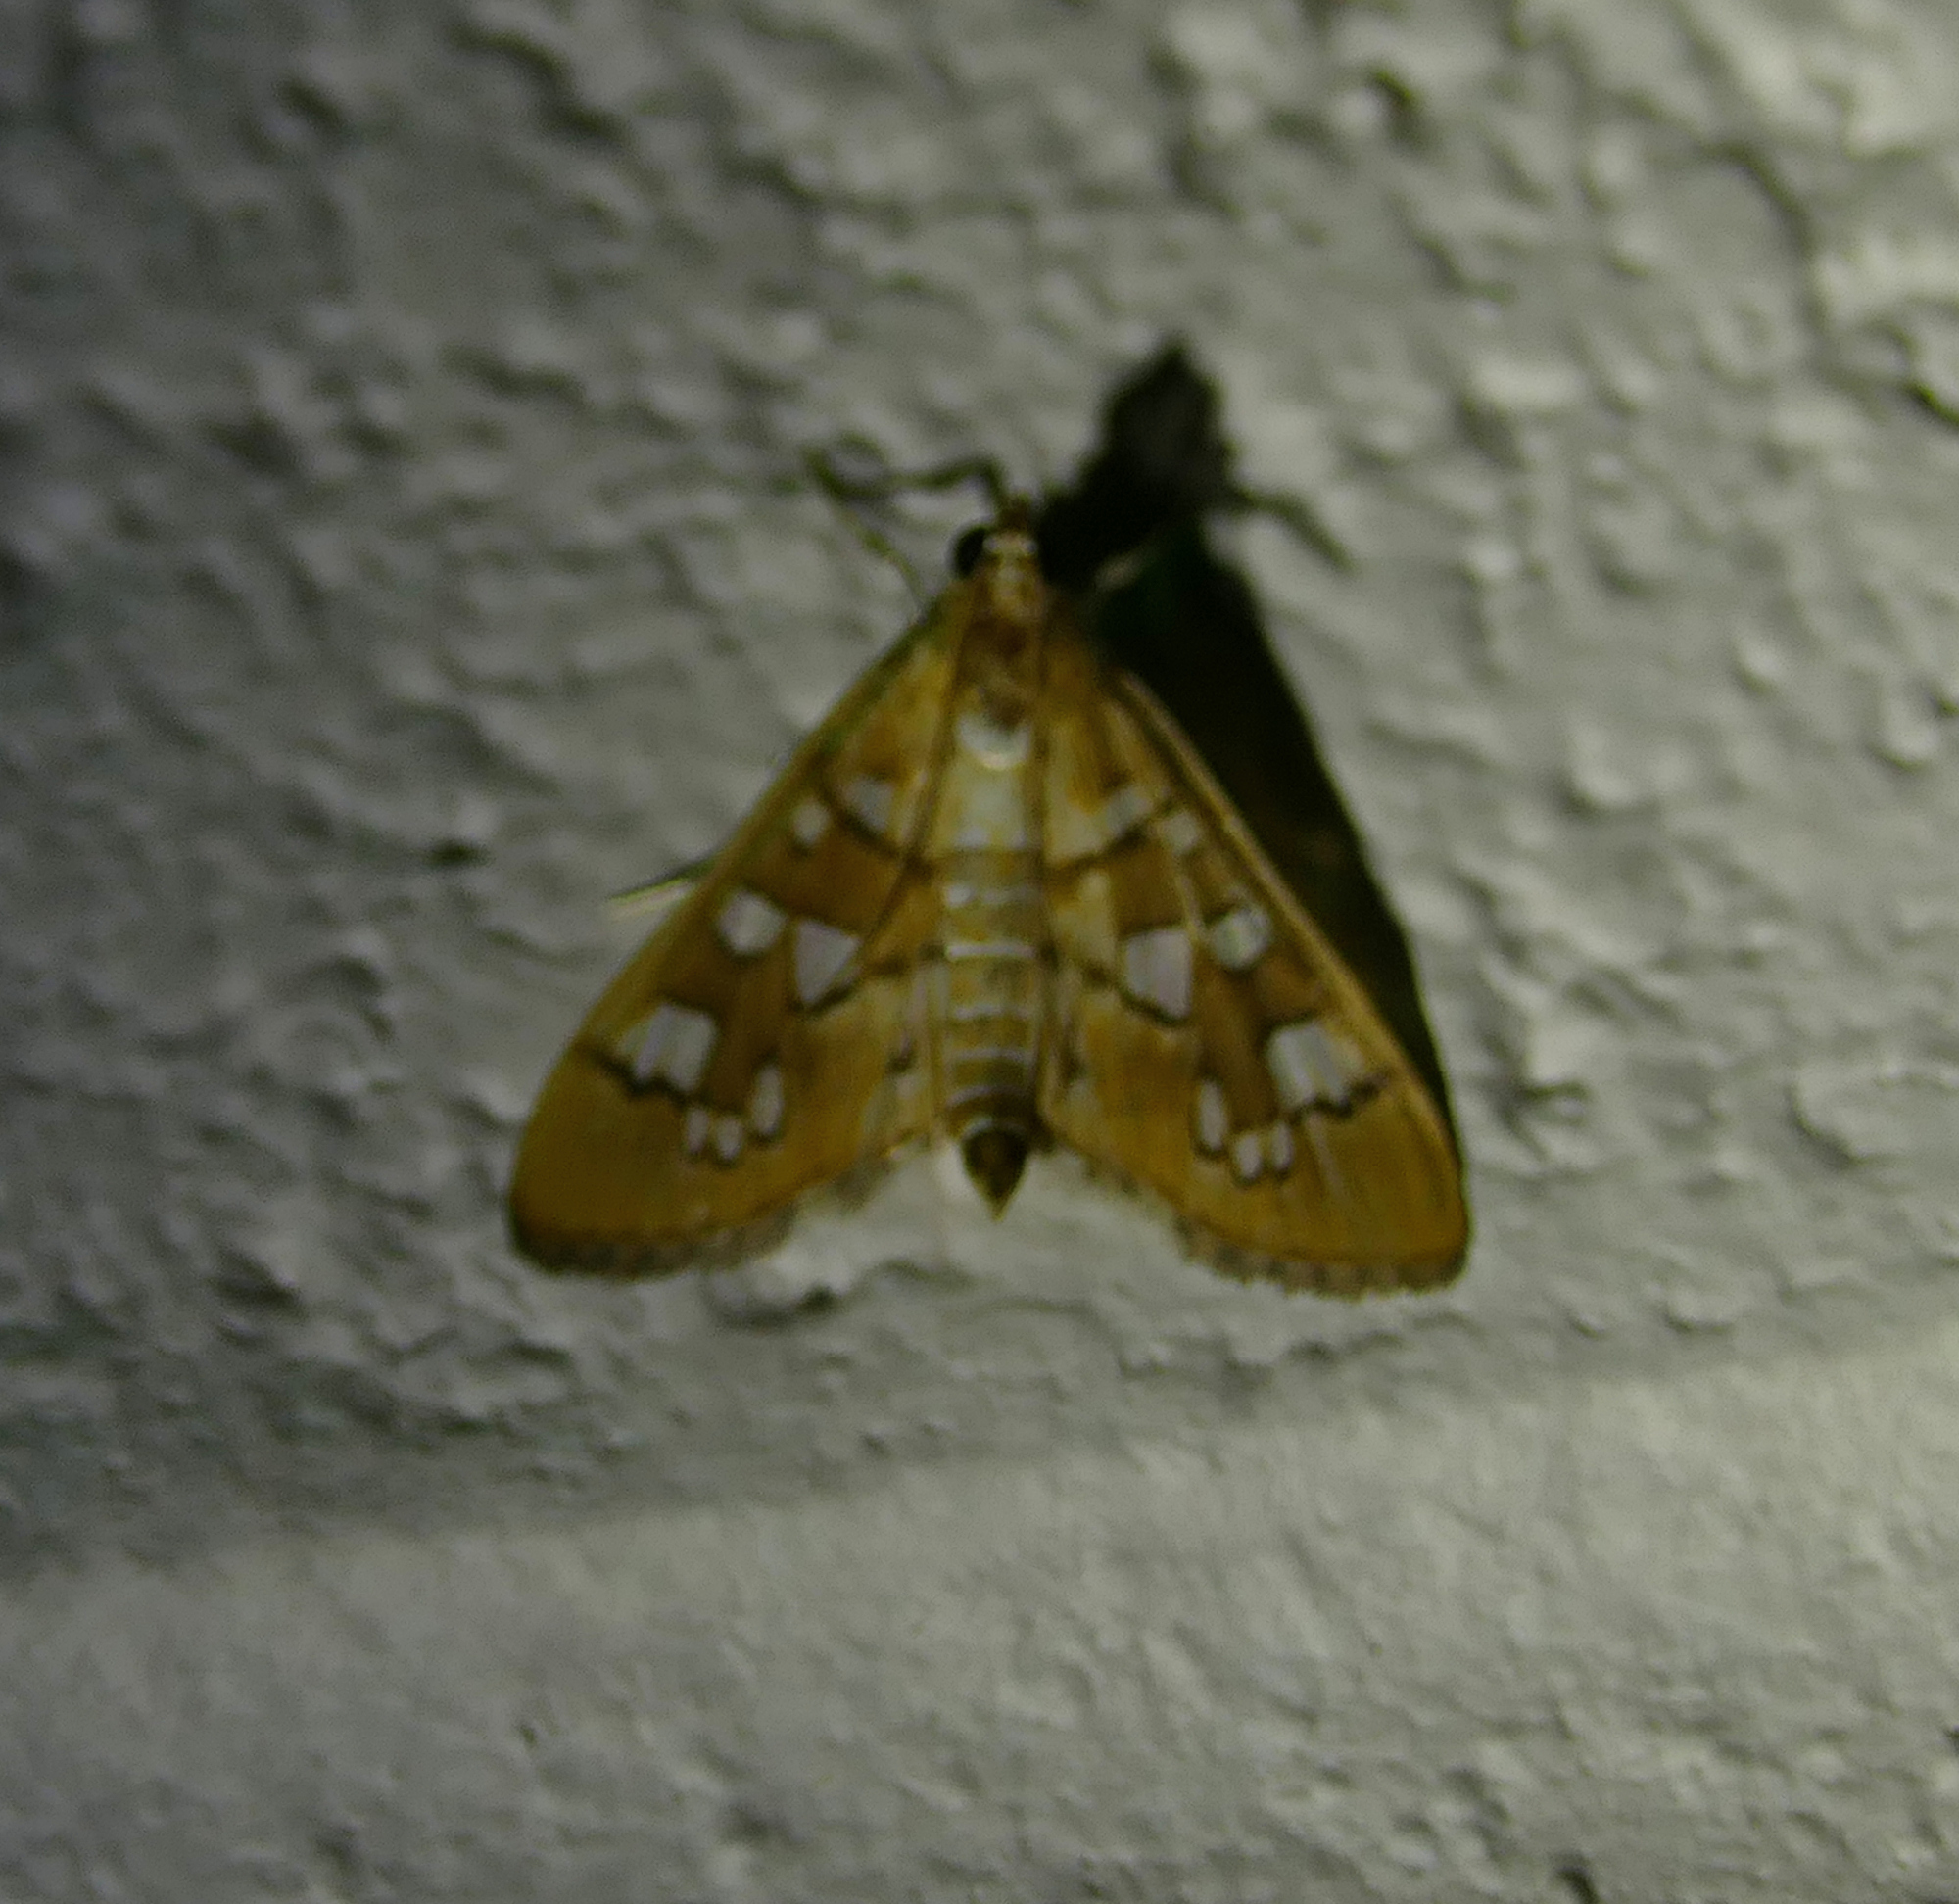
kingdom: Animalia
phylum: Arthropoda
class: Insecta
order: Lepidoptera
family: Crambidae
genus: Samea
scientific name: Samea baccatalis
